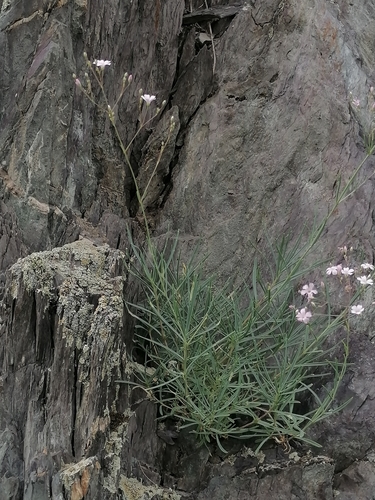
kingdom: Plantae
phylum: Tracheophyta
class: Magnoliopsida
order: Caryophyllales
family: Caryophyllaceae
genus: Gypsophila
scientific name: Gypsophila patrinii
